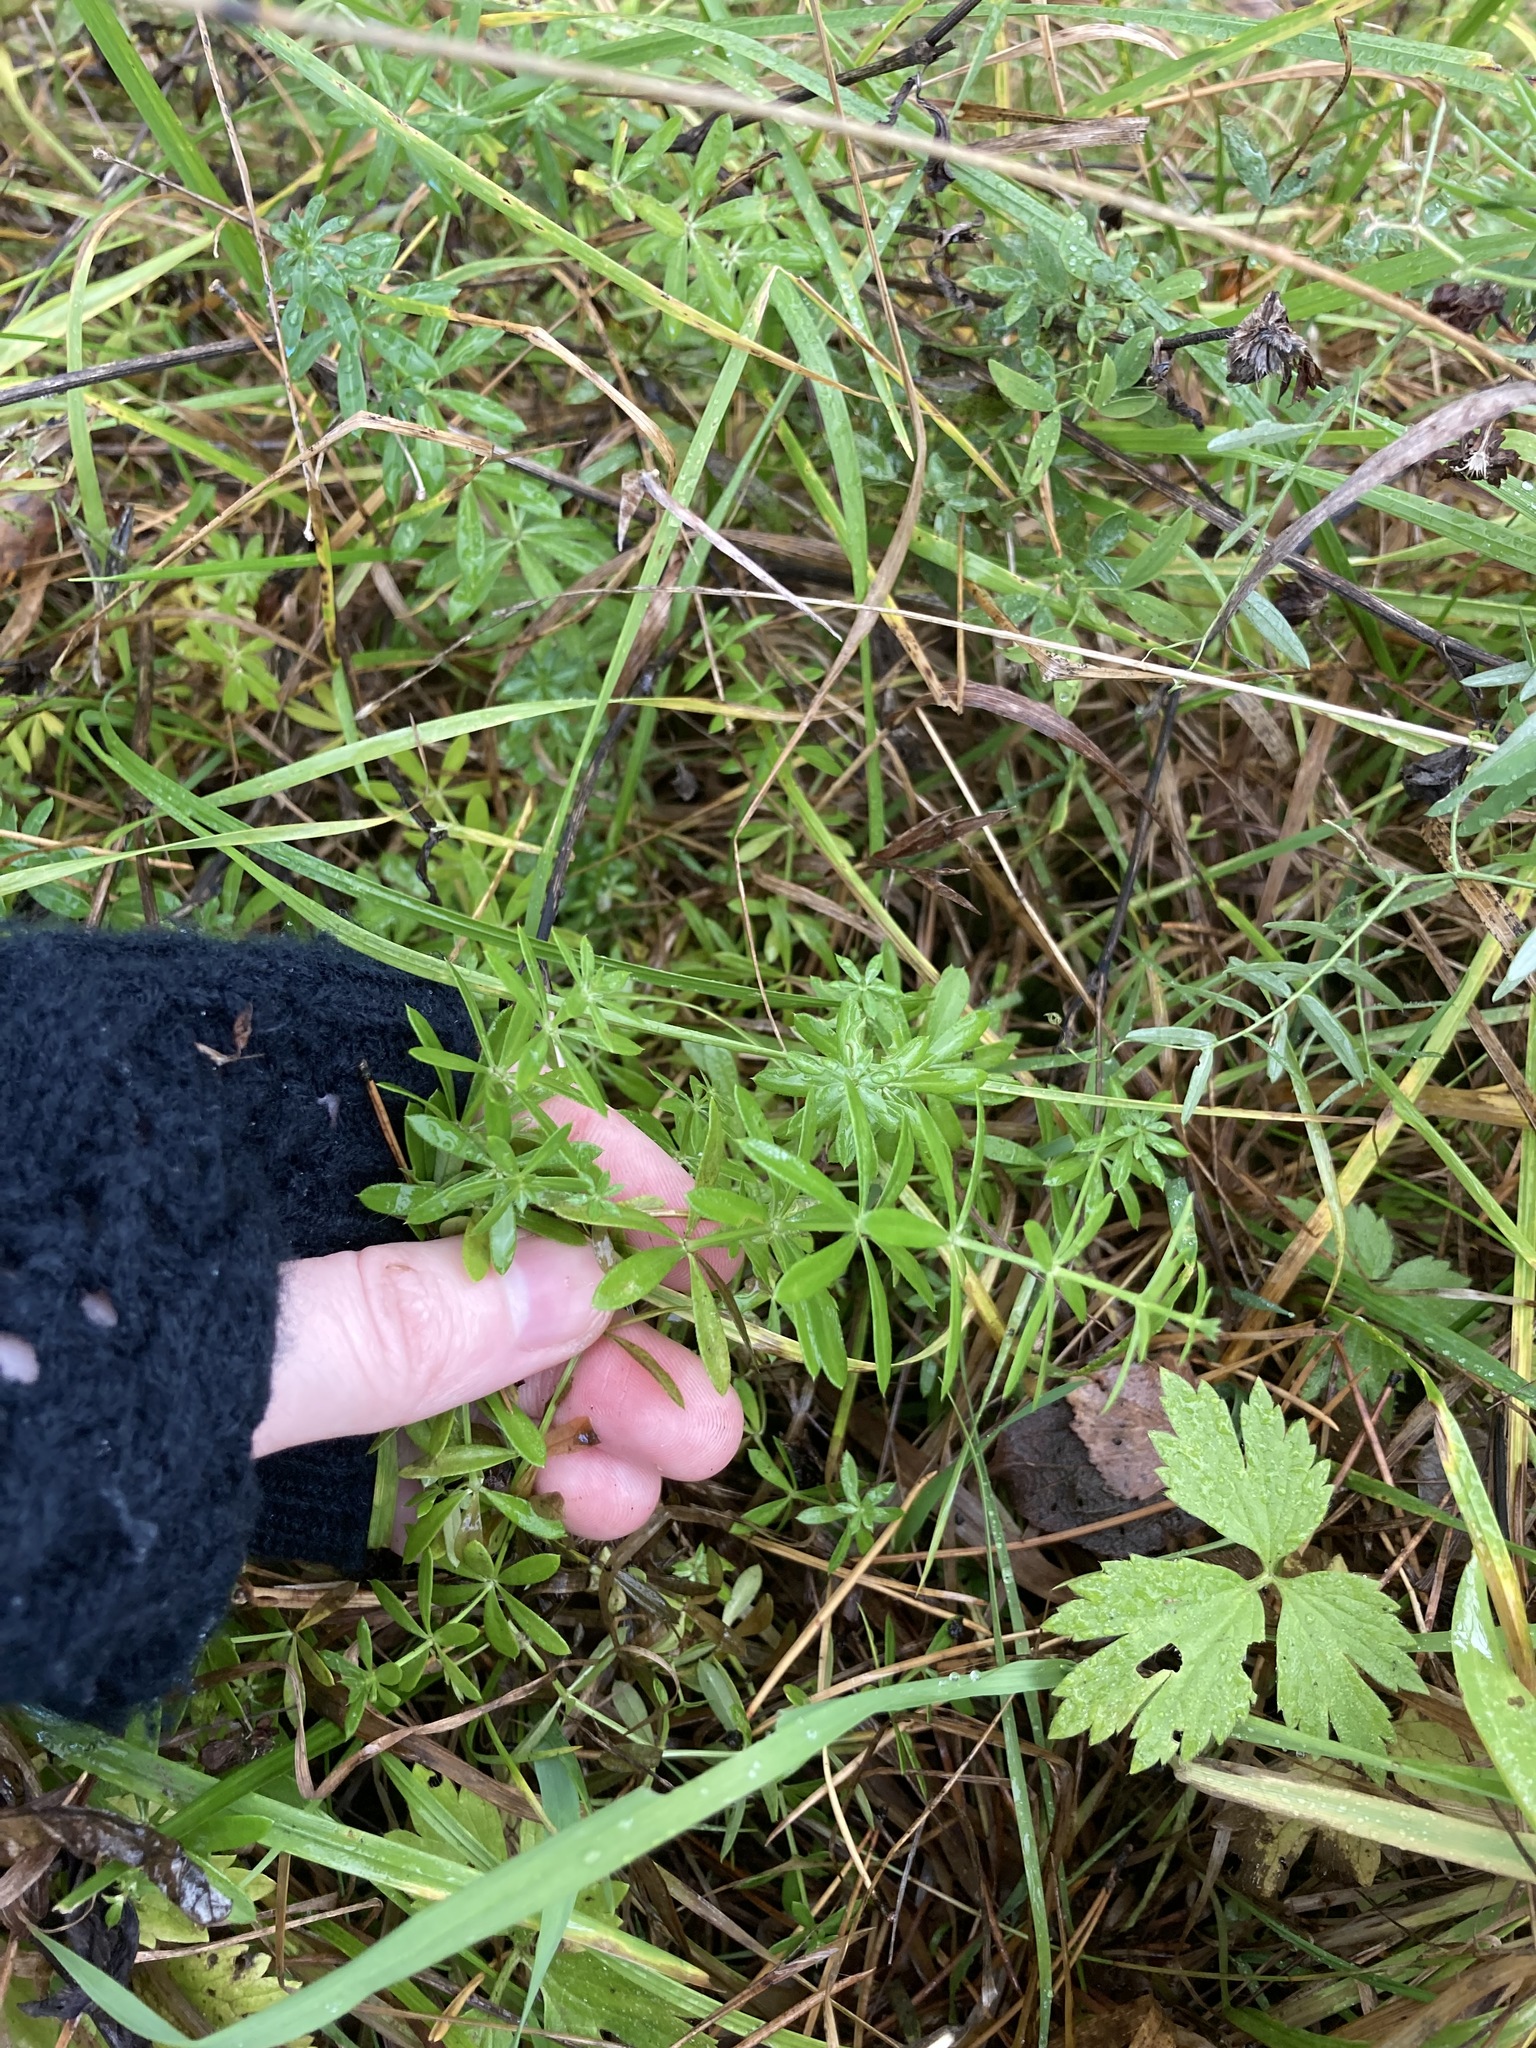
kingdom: Plantae
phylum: Tracheophyta
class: Magnoliopsida
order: Gentianales
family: Rubiaceae
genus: Galium
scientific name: Galium mollugo
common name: Hedge bedstraw
